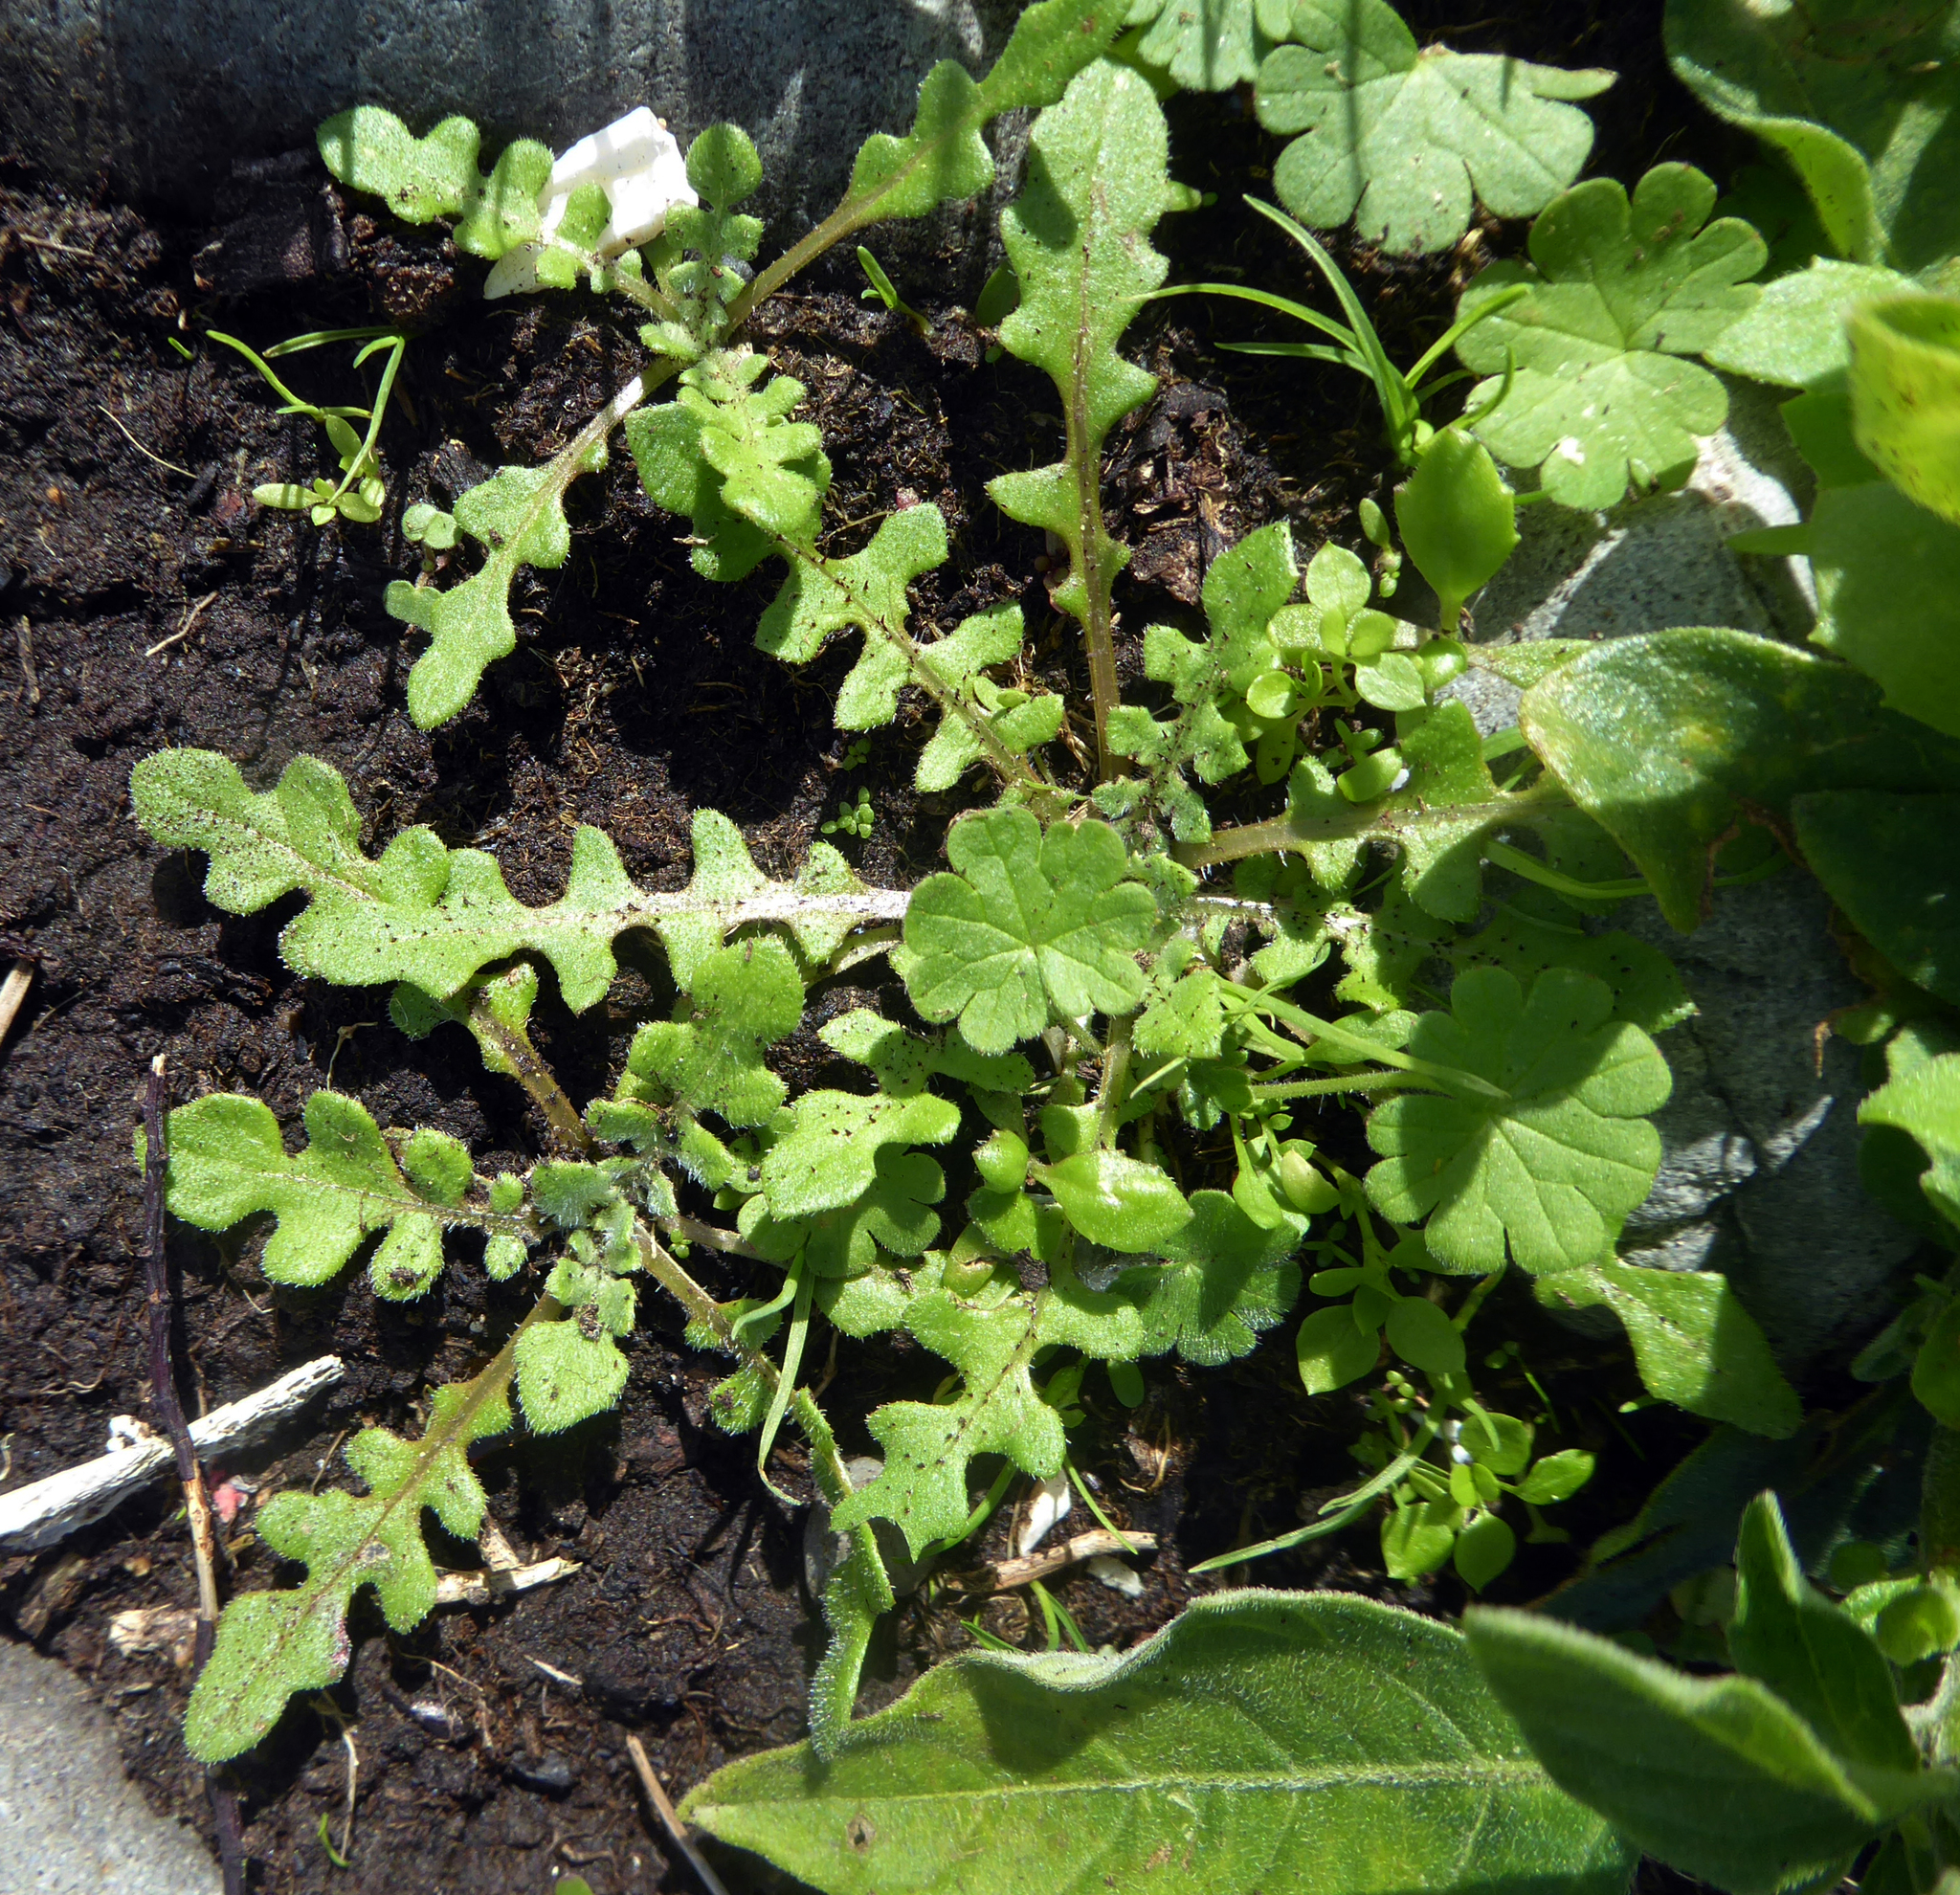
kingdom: Plantae
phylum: Tracheophyta
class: Magnoliopsida
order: Asterales
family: Asteraceae
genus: Arctotheca
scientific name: Arctotheca calendula
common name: Capeweed
